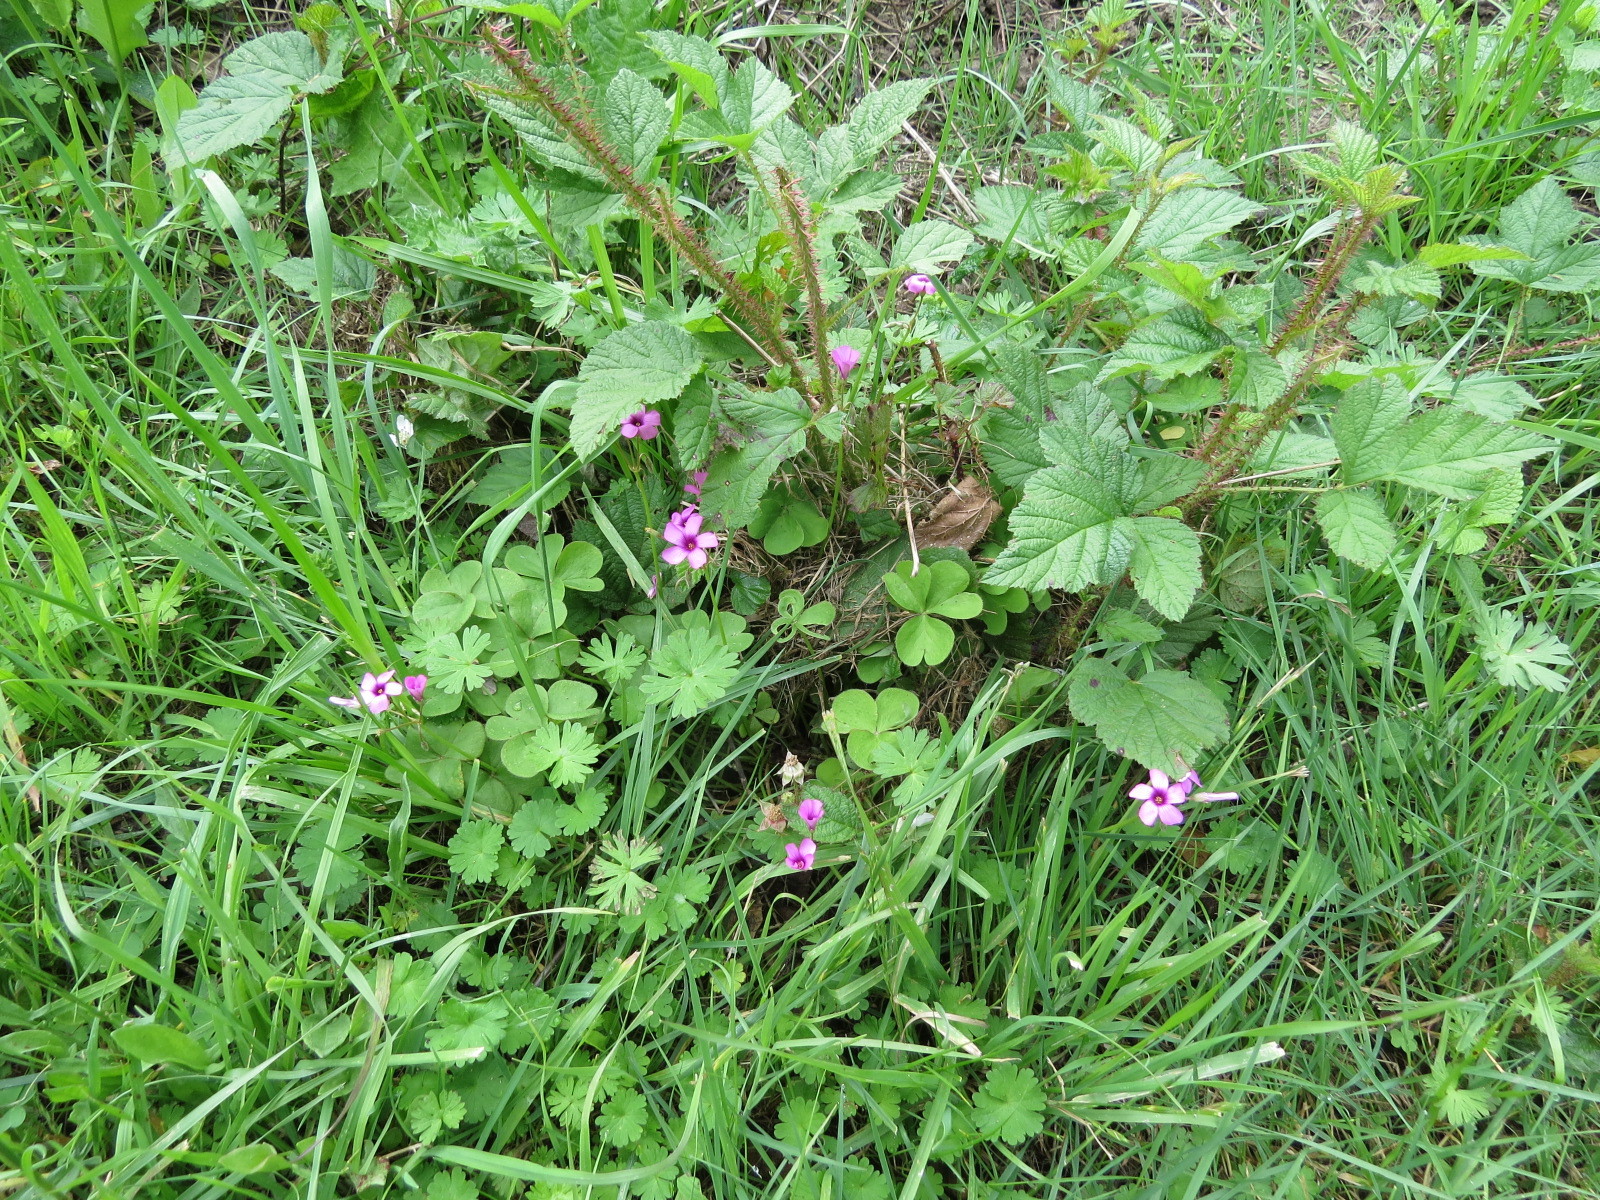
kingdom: Plantae
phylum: Tracheophyta
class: Magnoliopsida
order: Oxalidales
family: Oxalidaceae
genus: Oxalis
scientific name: Oxalis articulata
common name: Pink-sorrel
